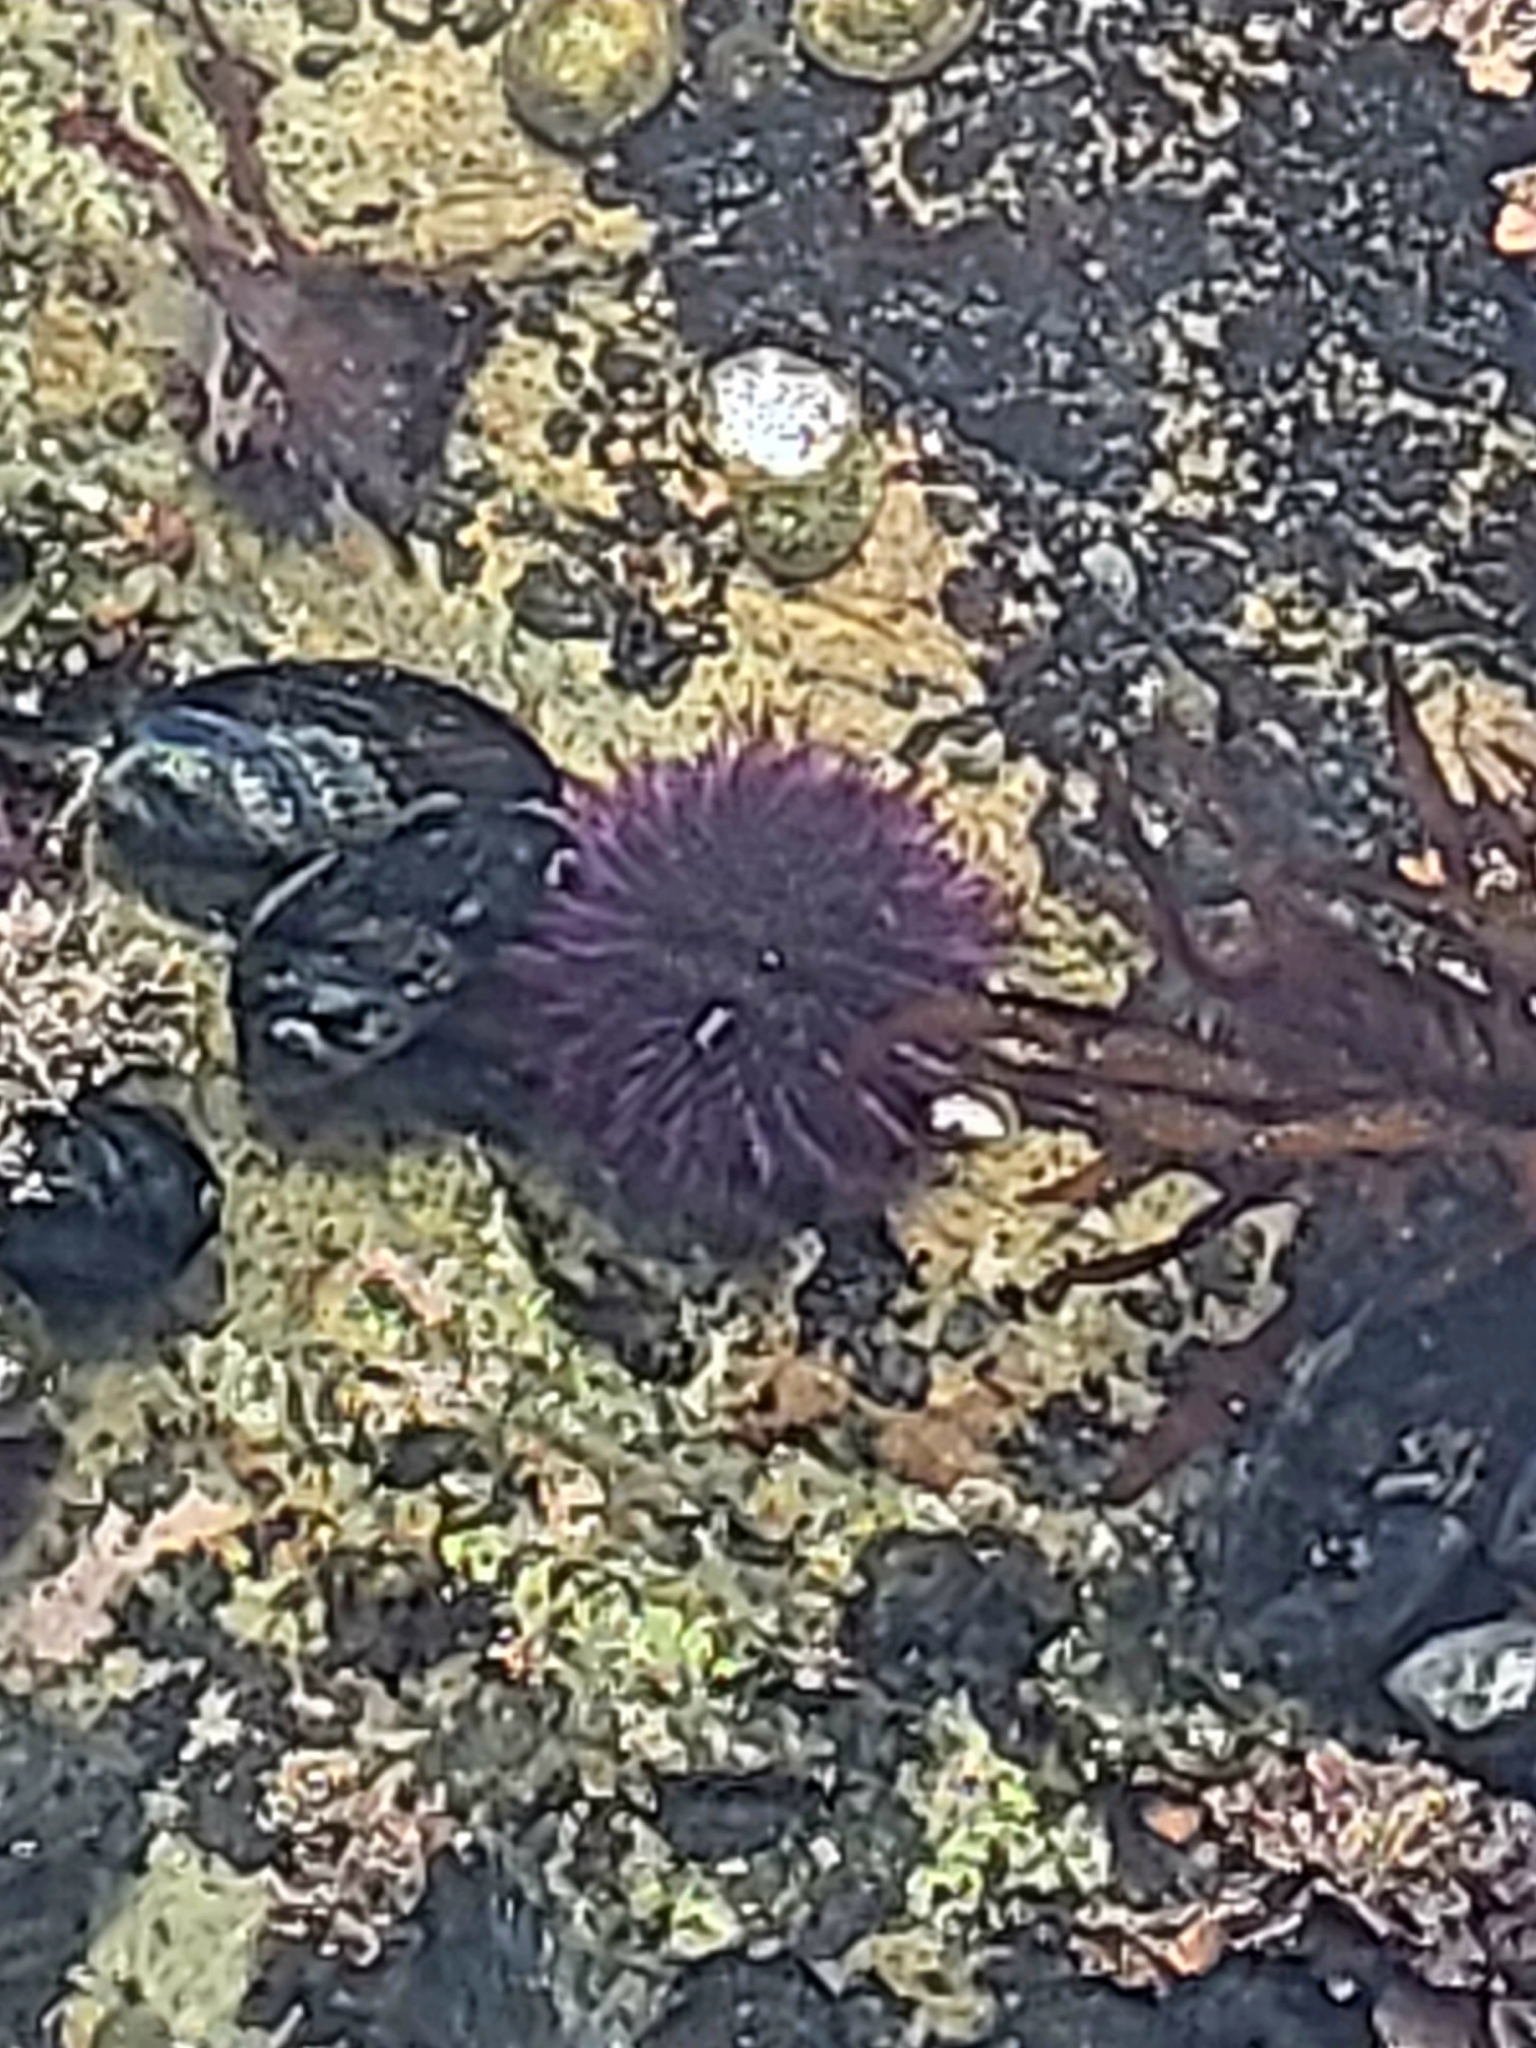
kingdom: Animalia
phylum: Echinodermata
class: Echinoidea
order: Camarodonta
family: Strongylocentrotidae
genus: Strongylocentrotus
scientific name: Strongylocentrotus purpuratus
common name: Purple sea urchin
